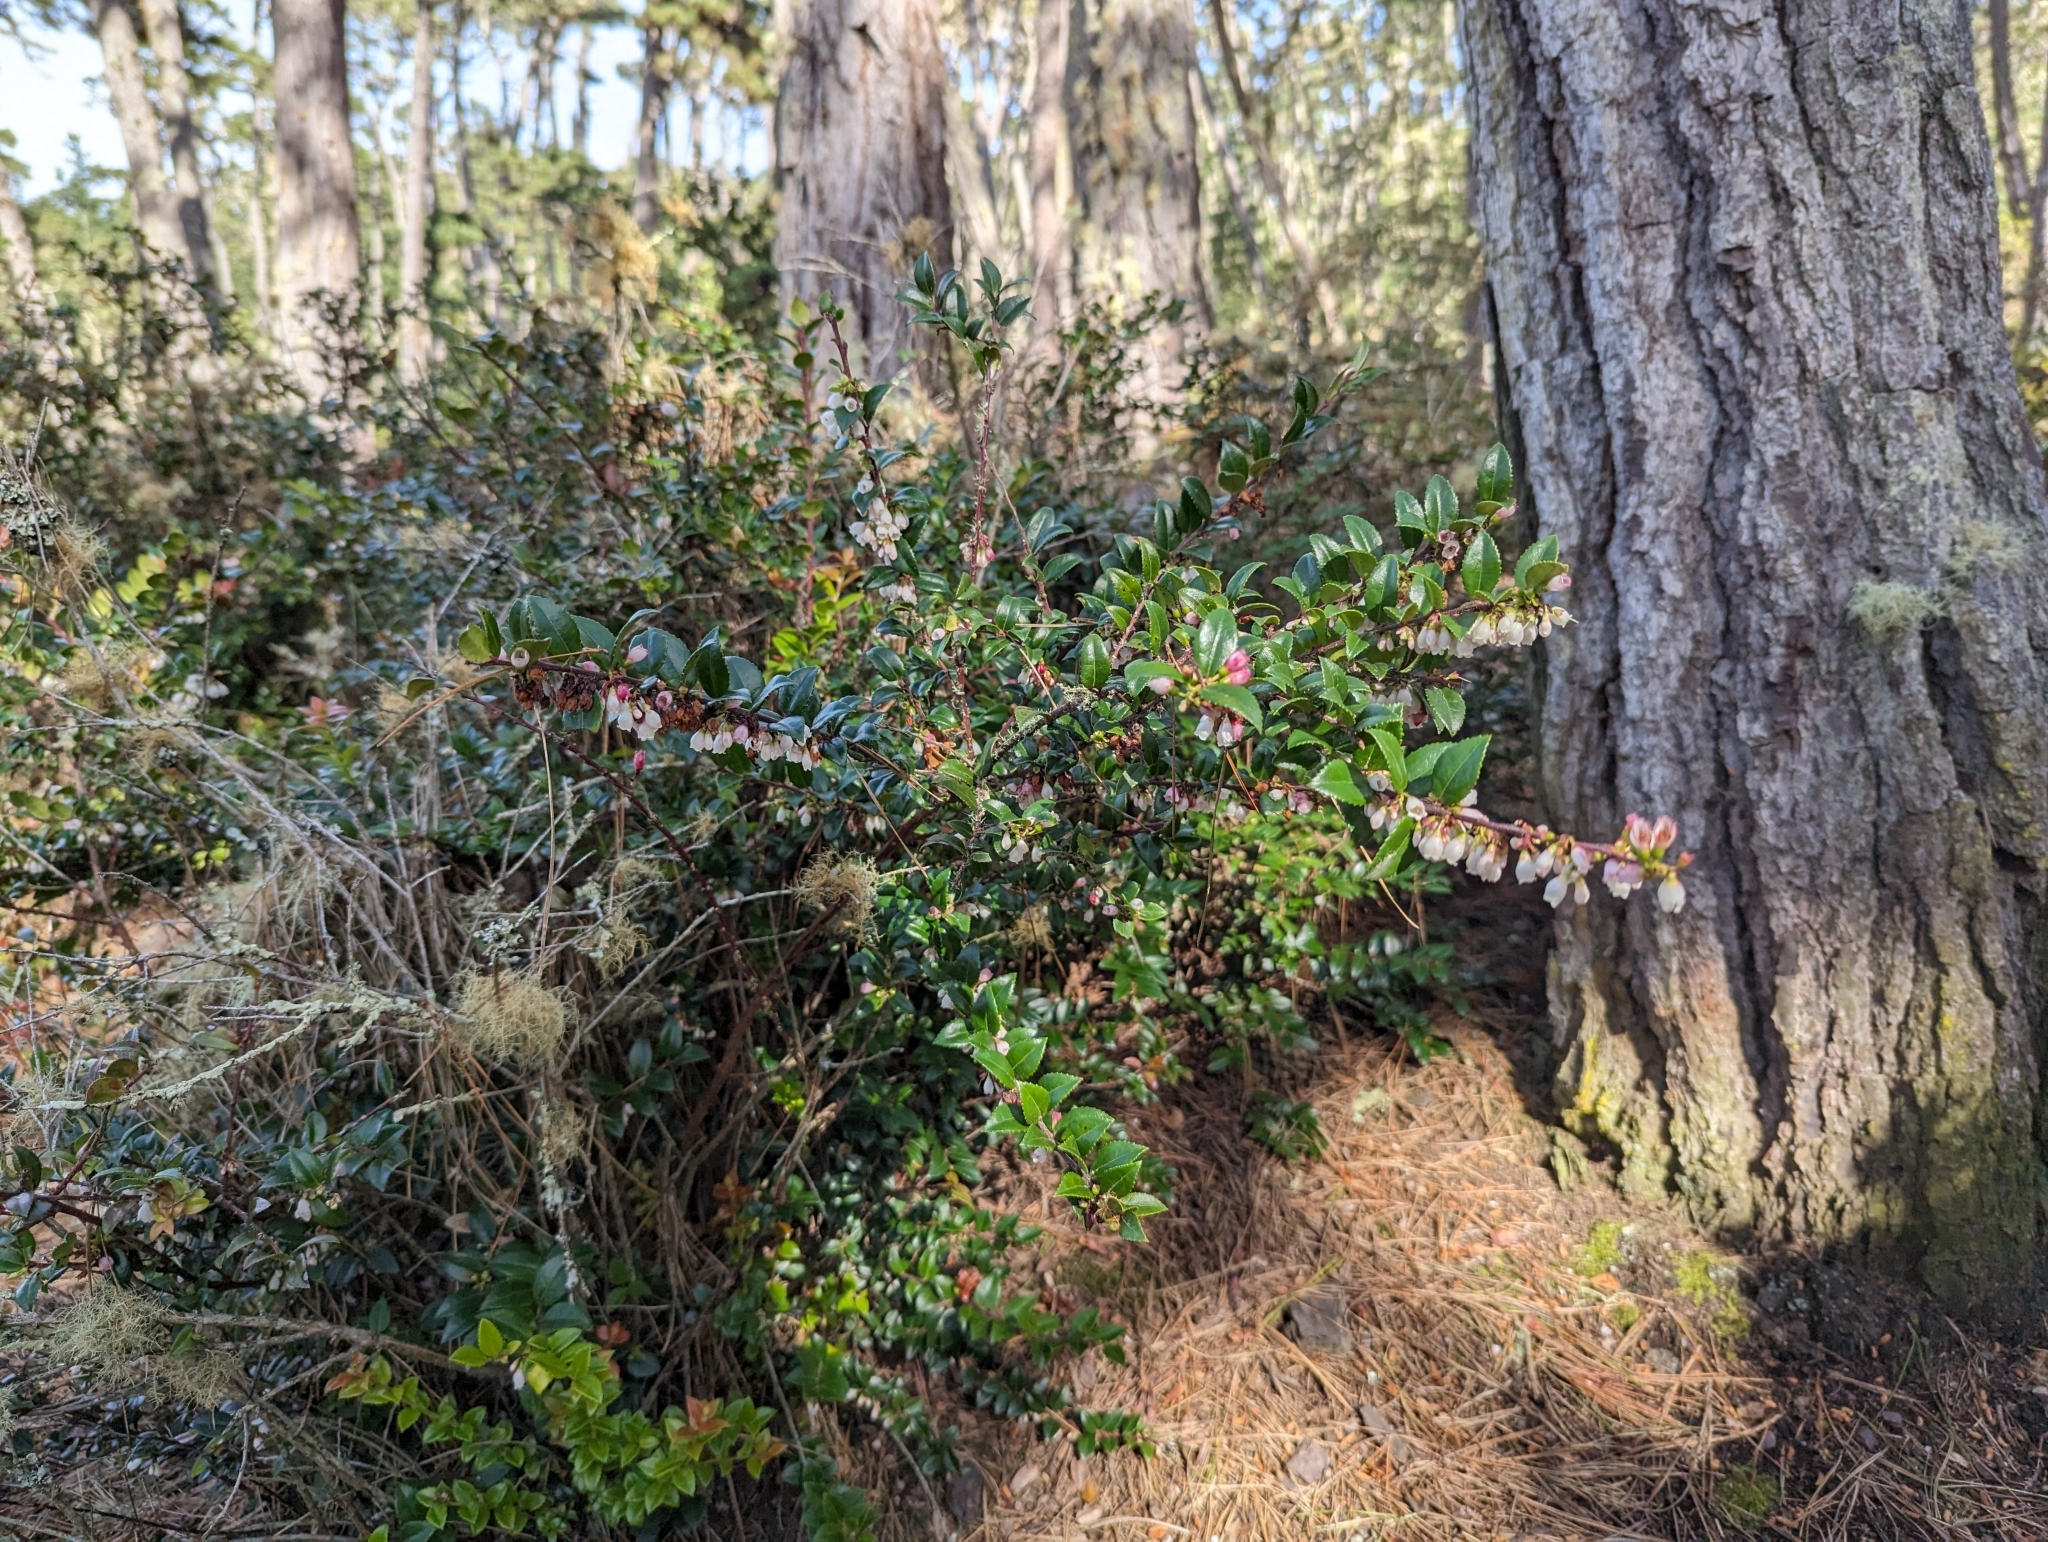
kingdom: Plantae
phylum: Tracheophyta
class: Magnoliopsida
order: Ericales
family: Ericaceae
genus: Vaccinium
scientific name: Vaccinium ovatum
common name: California-huckleberry
